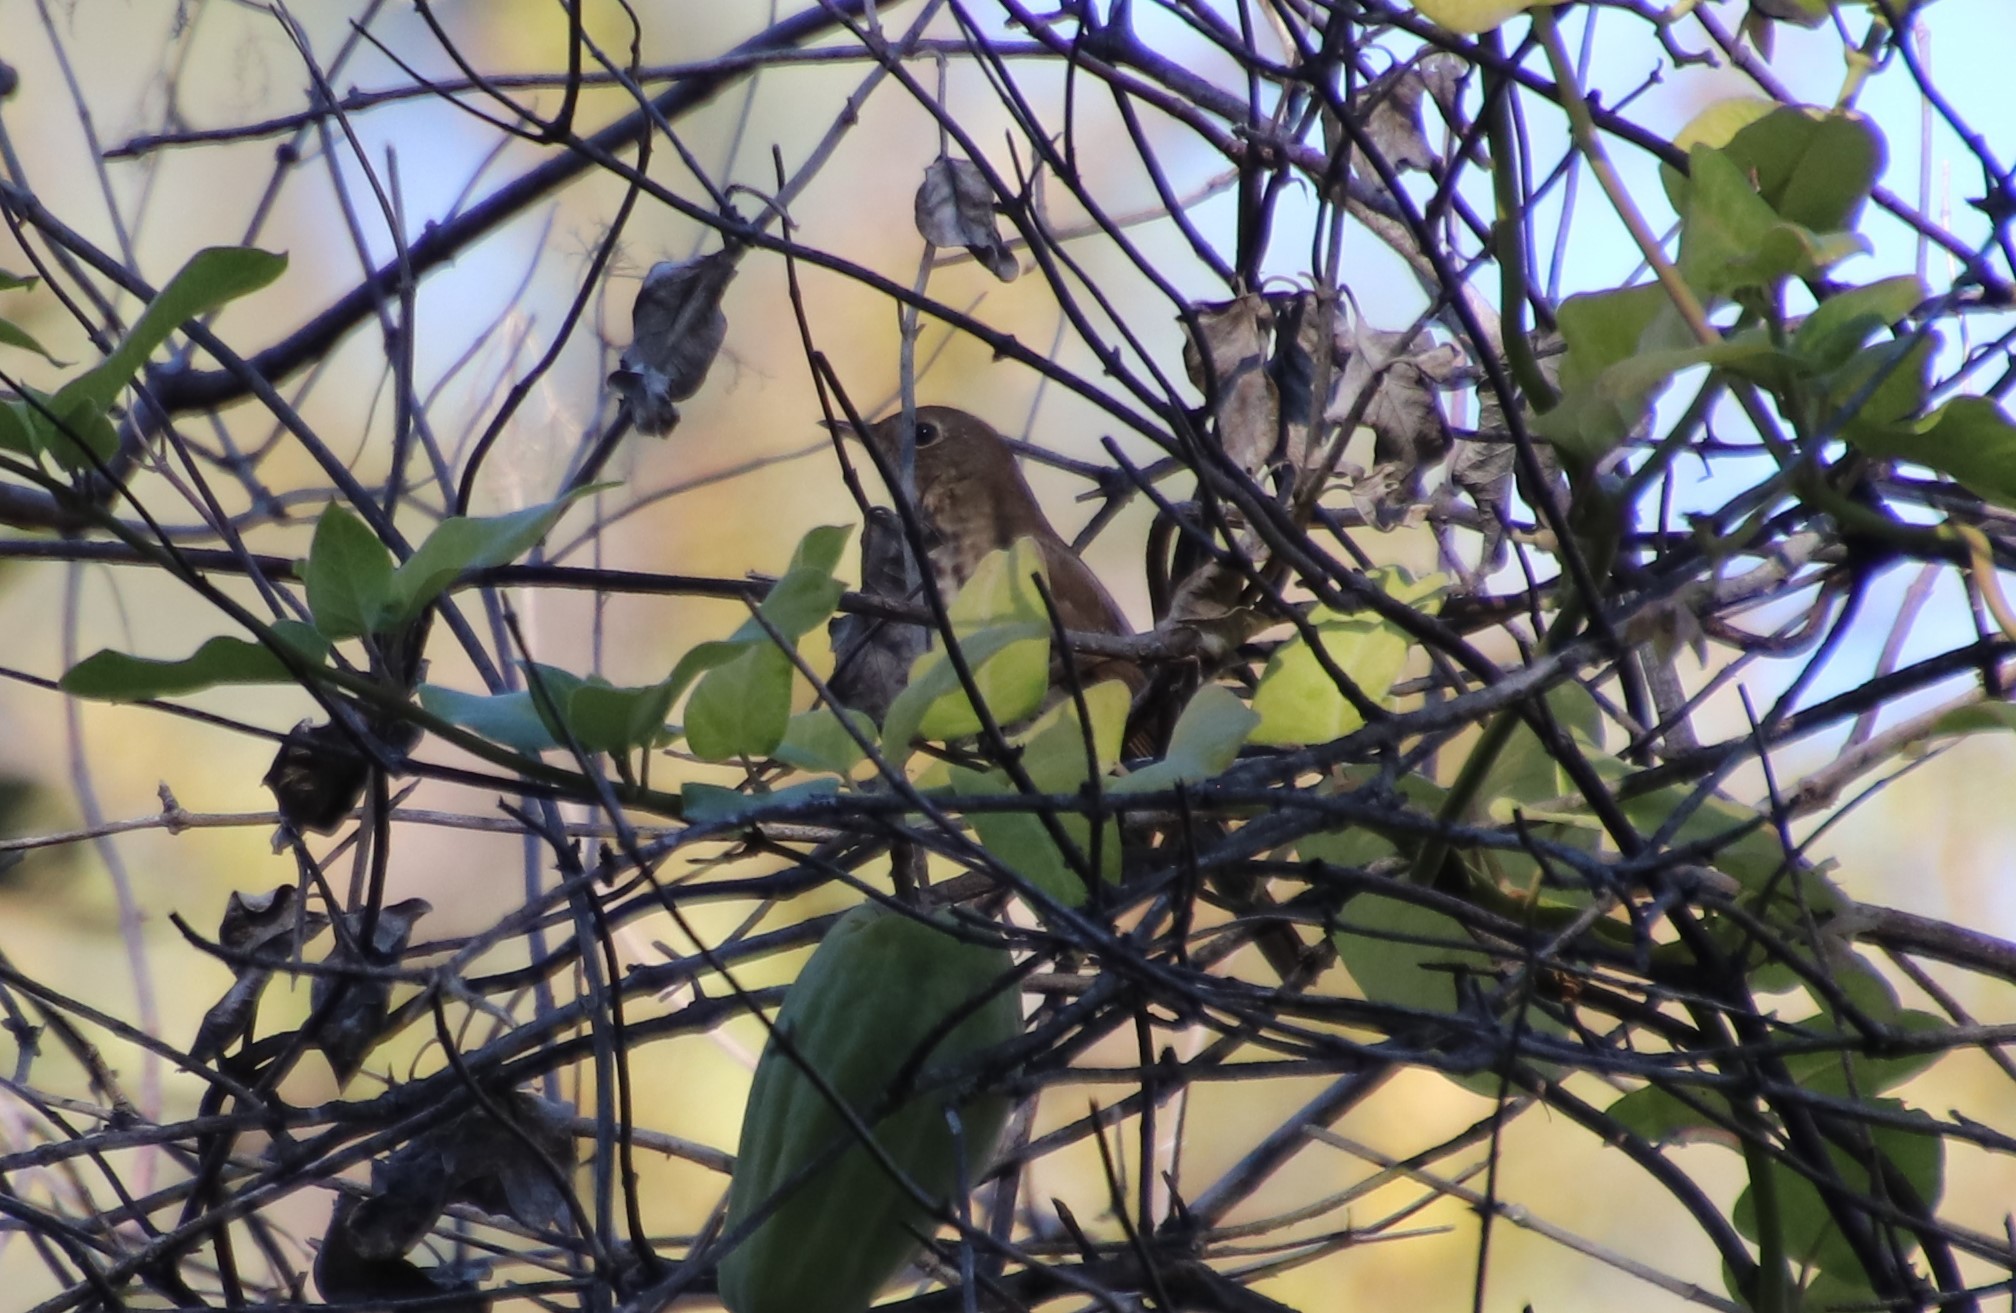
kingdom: Animalia
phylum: Chordata
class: Aves
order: Passeriformes
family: Turdidae
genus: Catharus
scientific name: Catharus guttatus
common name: Hermit thrush
